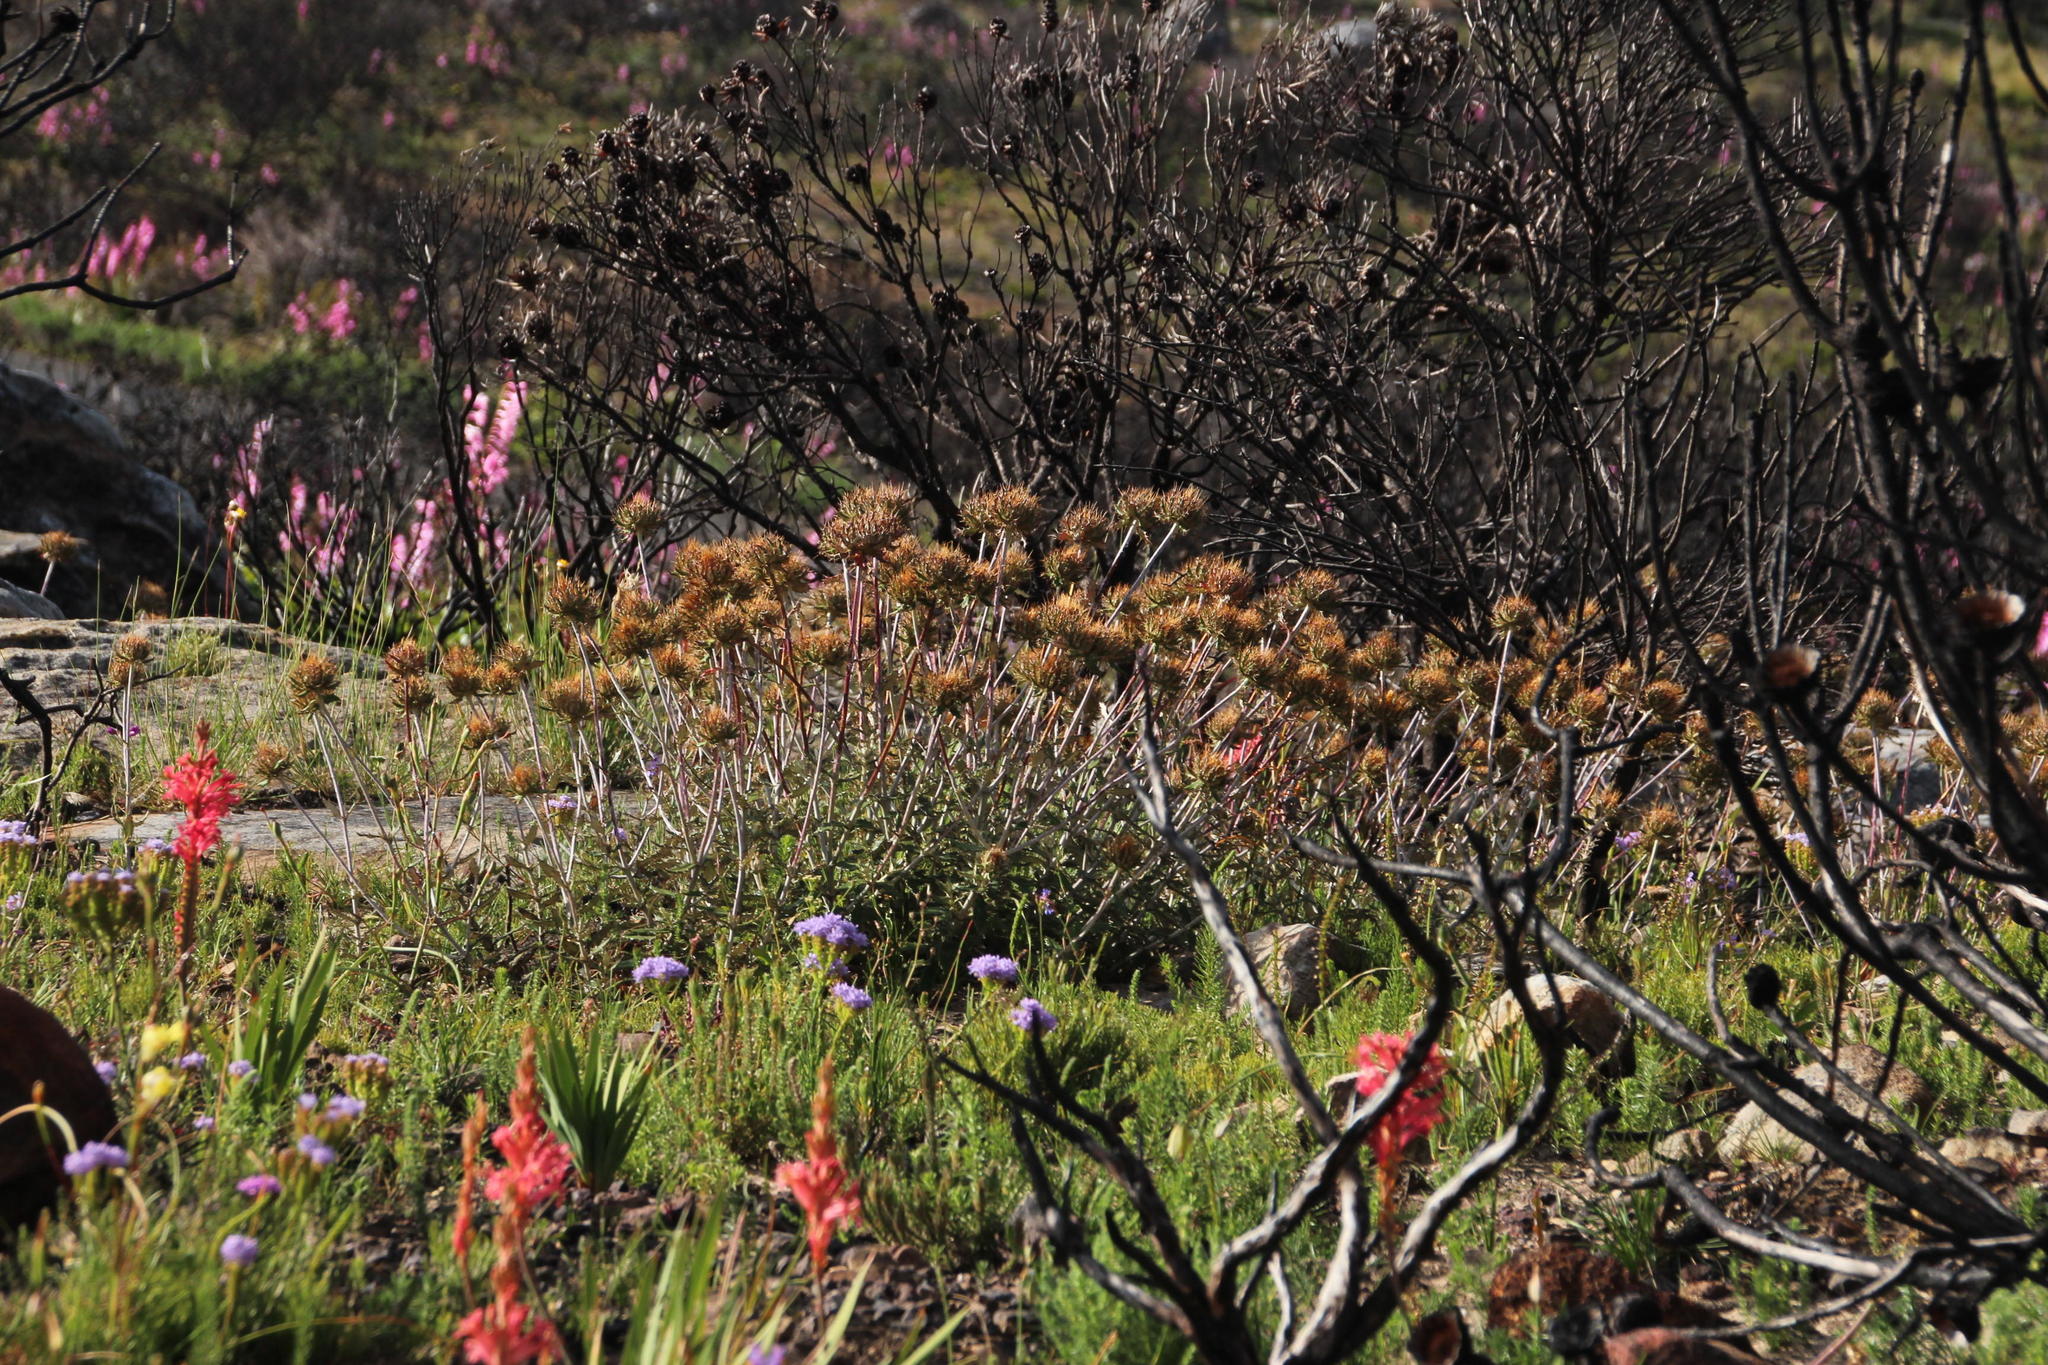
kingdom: Plantae
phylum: Tracheophyta
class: Magnoliopsida
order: Asterales
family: Asteraceae
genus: Berkheya
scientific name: Berkheya barbata
